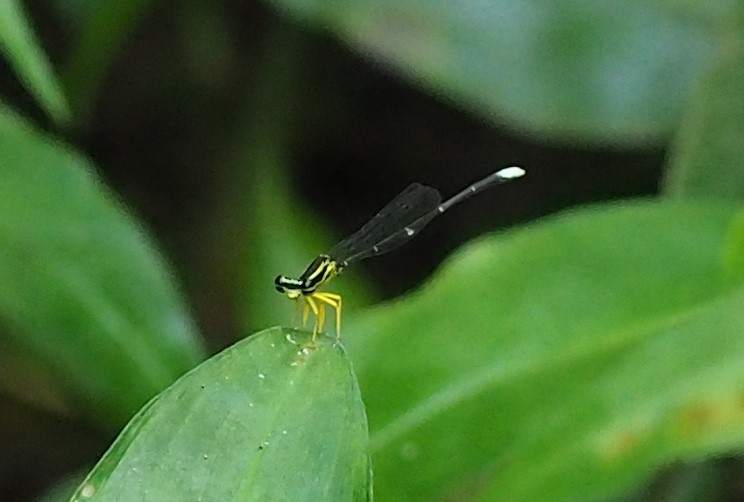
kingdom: Animalia
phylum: Arthropoda
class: Insecta
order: Odonata
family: Platycnemididae
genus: Copera
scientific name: Copera marginipes
